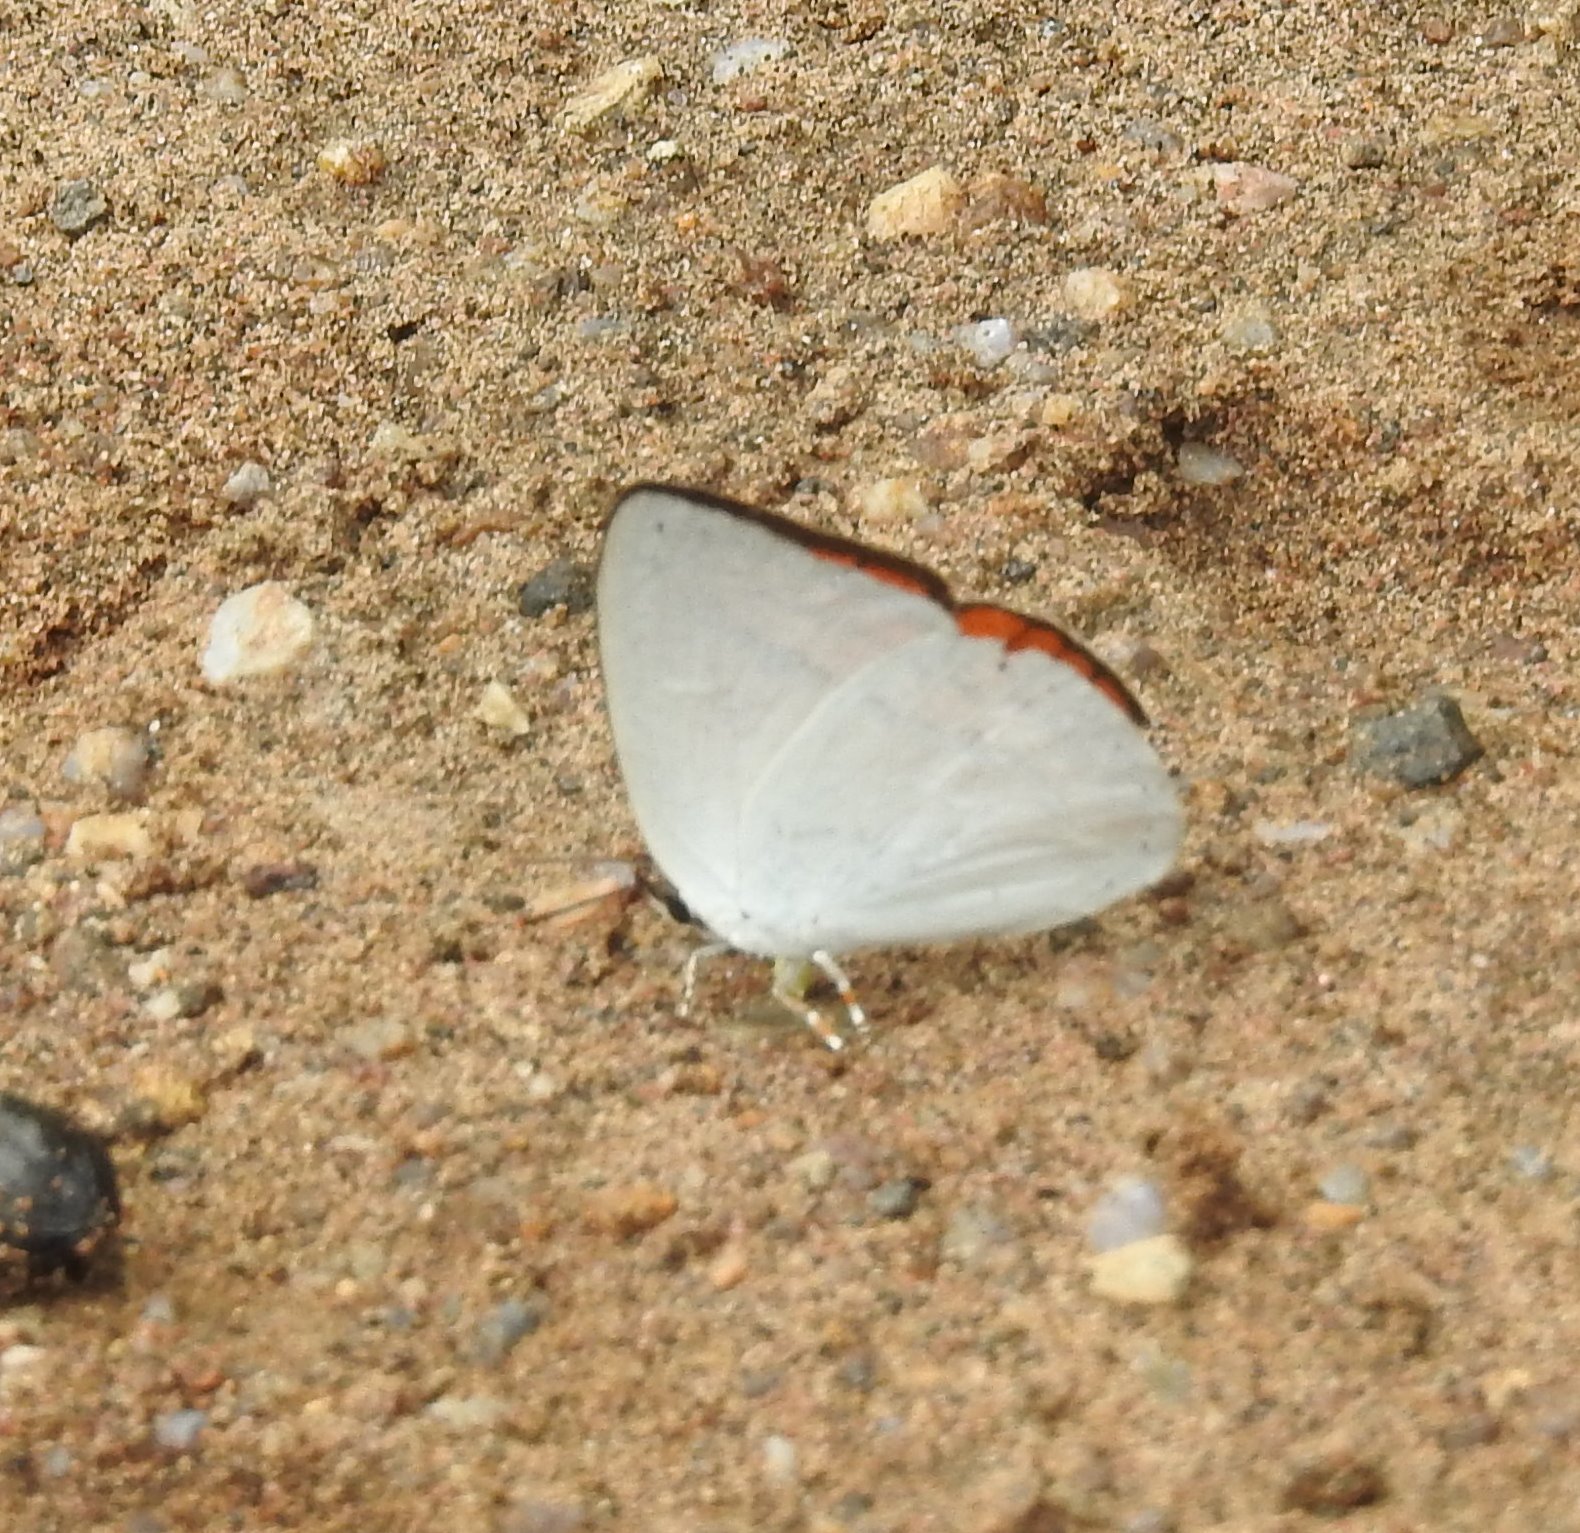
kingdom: Animalia
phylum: Arthropoda
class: Insecta
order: Lepidoptera
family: Lycaenidae
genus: Curetis
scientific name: Curetis thetis
